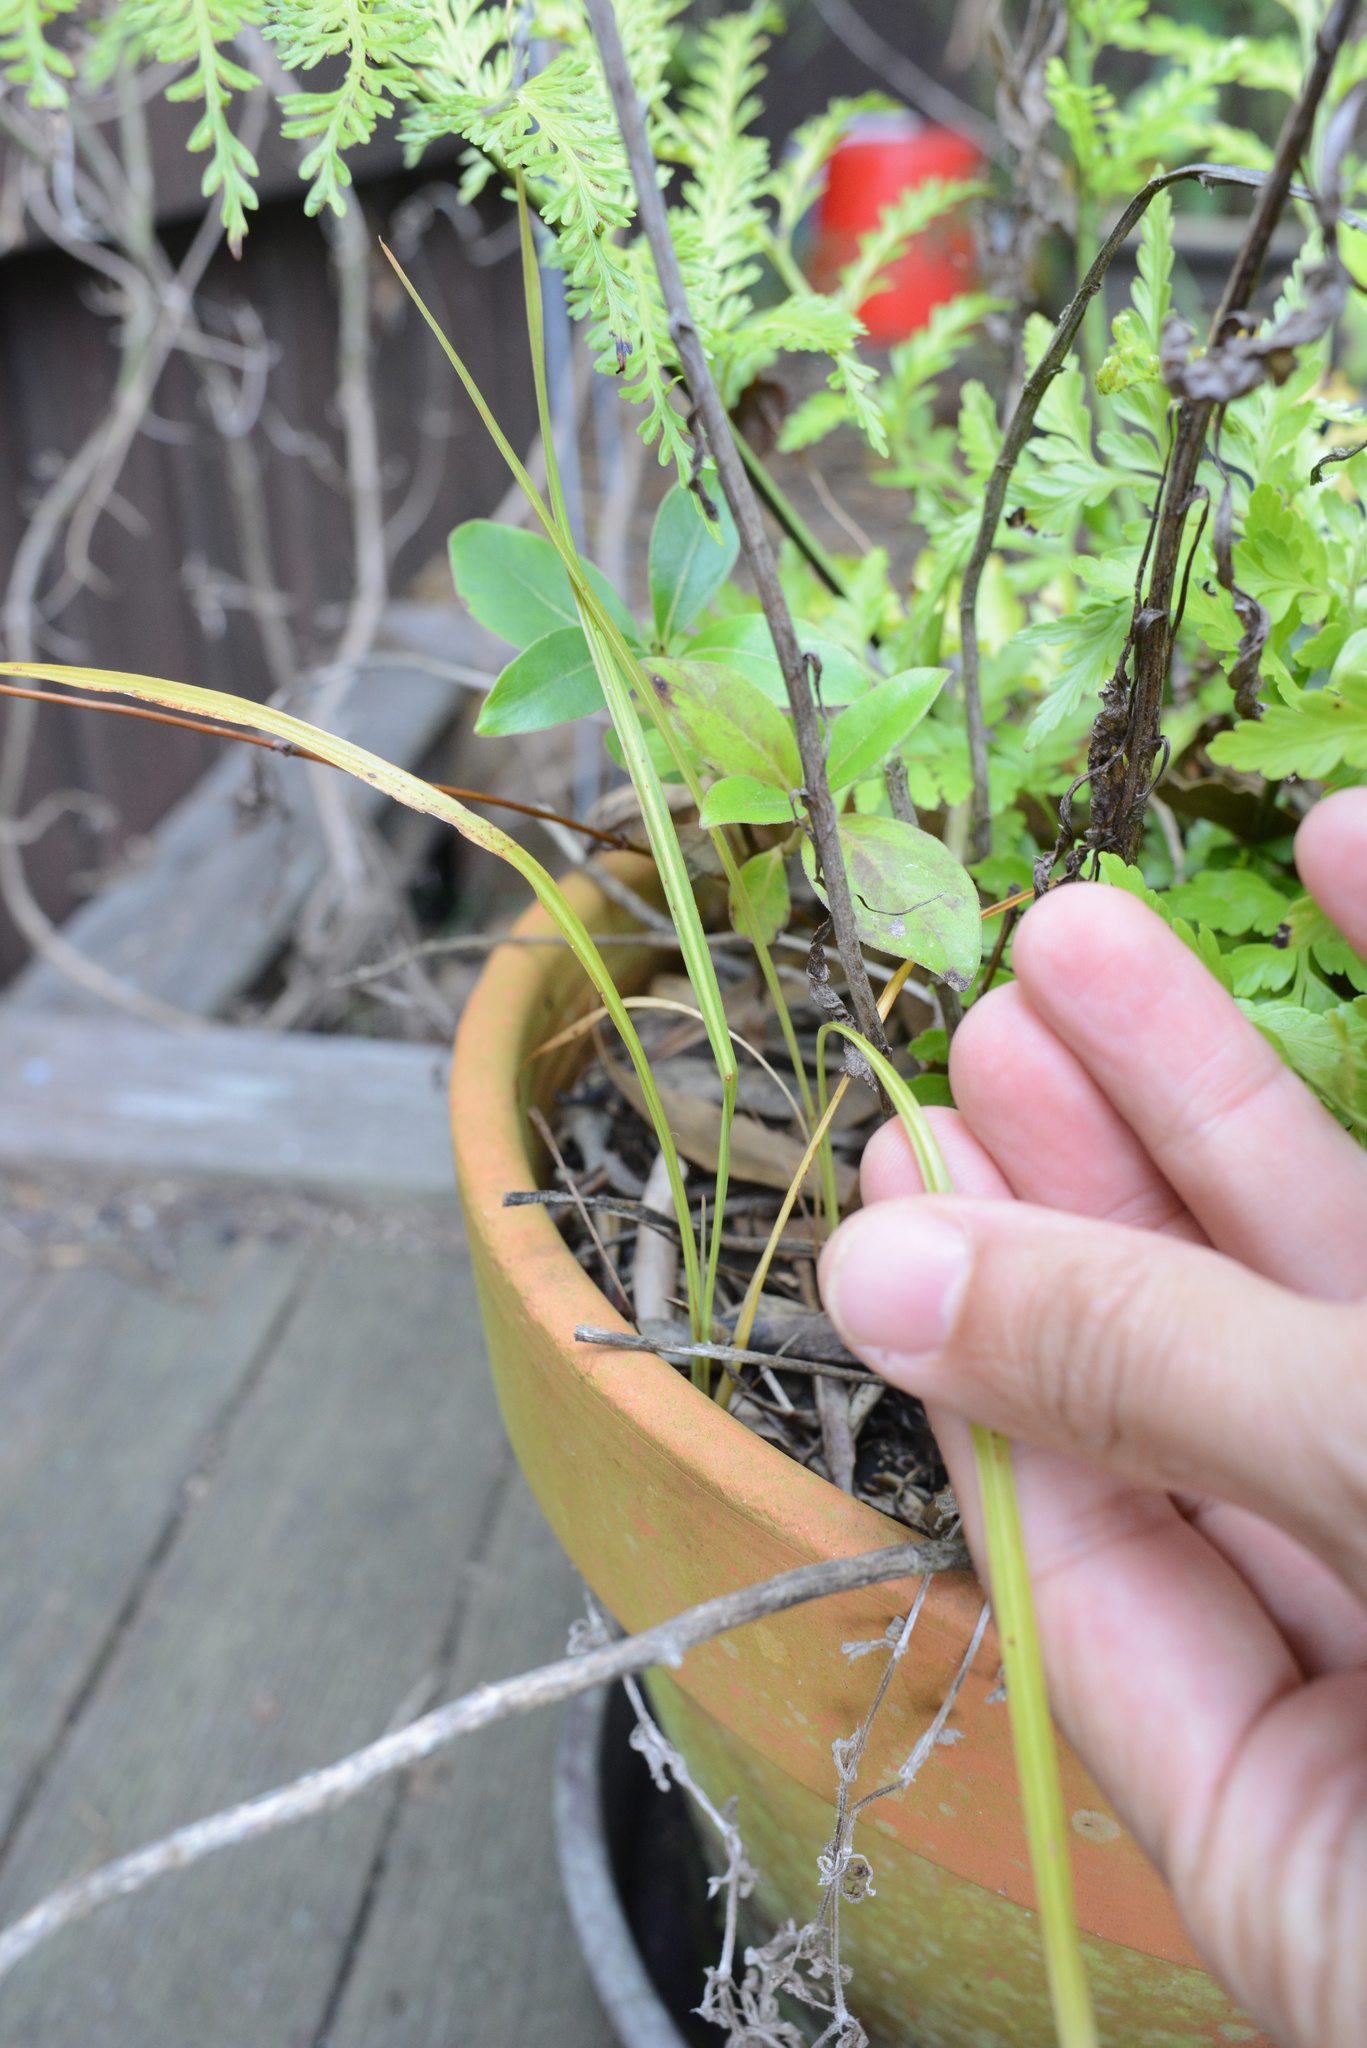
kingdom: Plantae
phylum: Tracheophyta
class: Liliopsida
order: Asparagales
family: Asparagaceae
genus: Cordyline
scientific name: Cordyline australis
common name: Cabbage-palm
